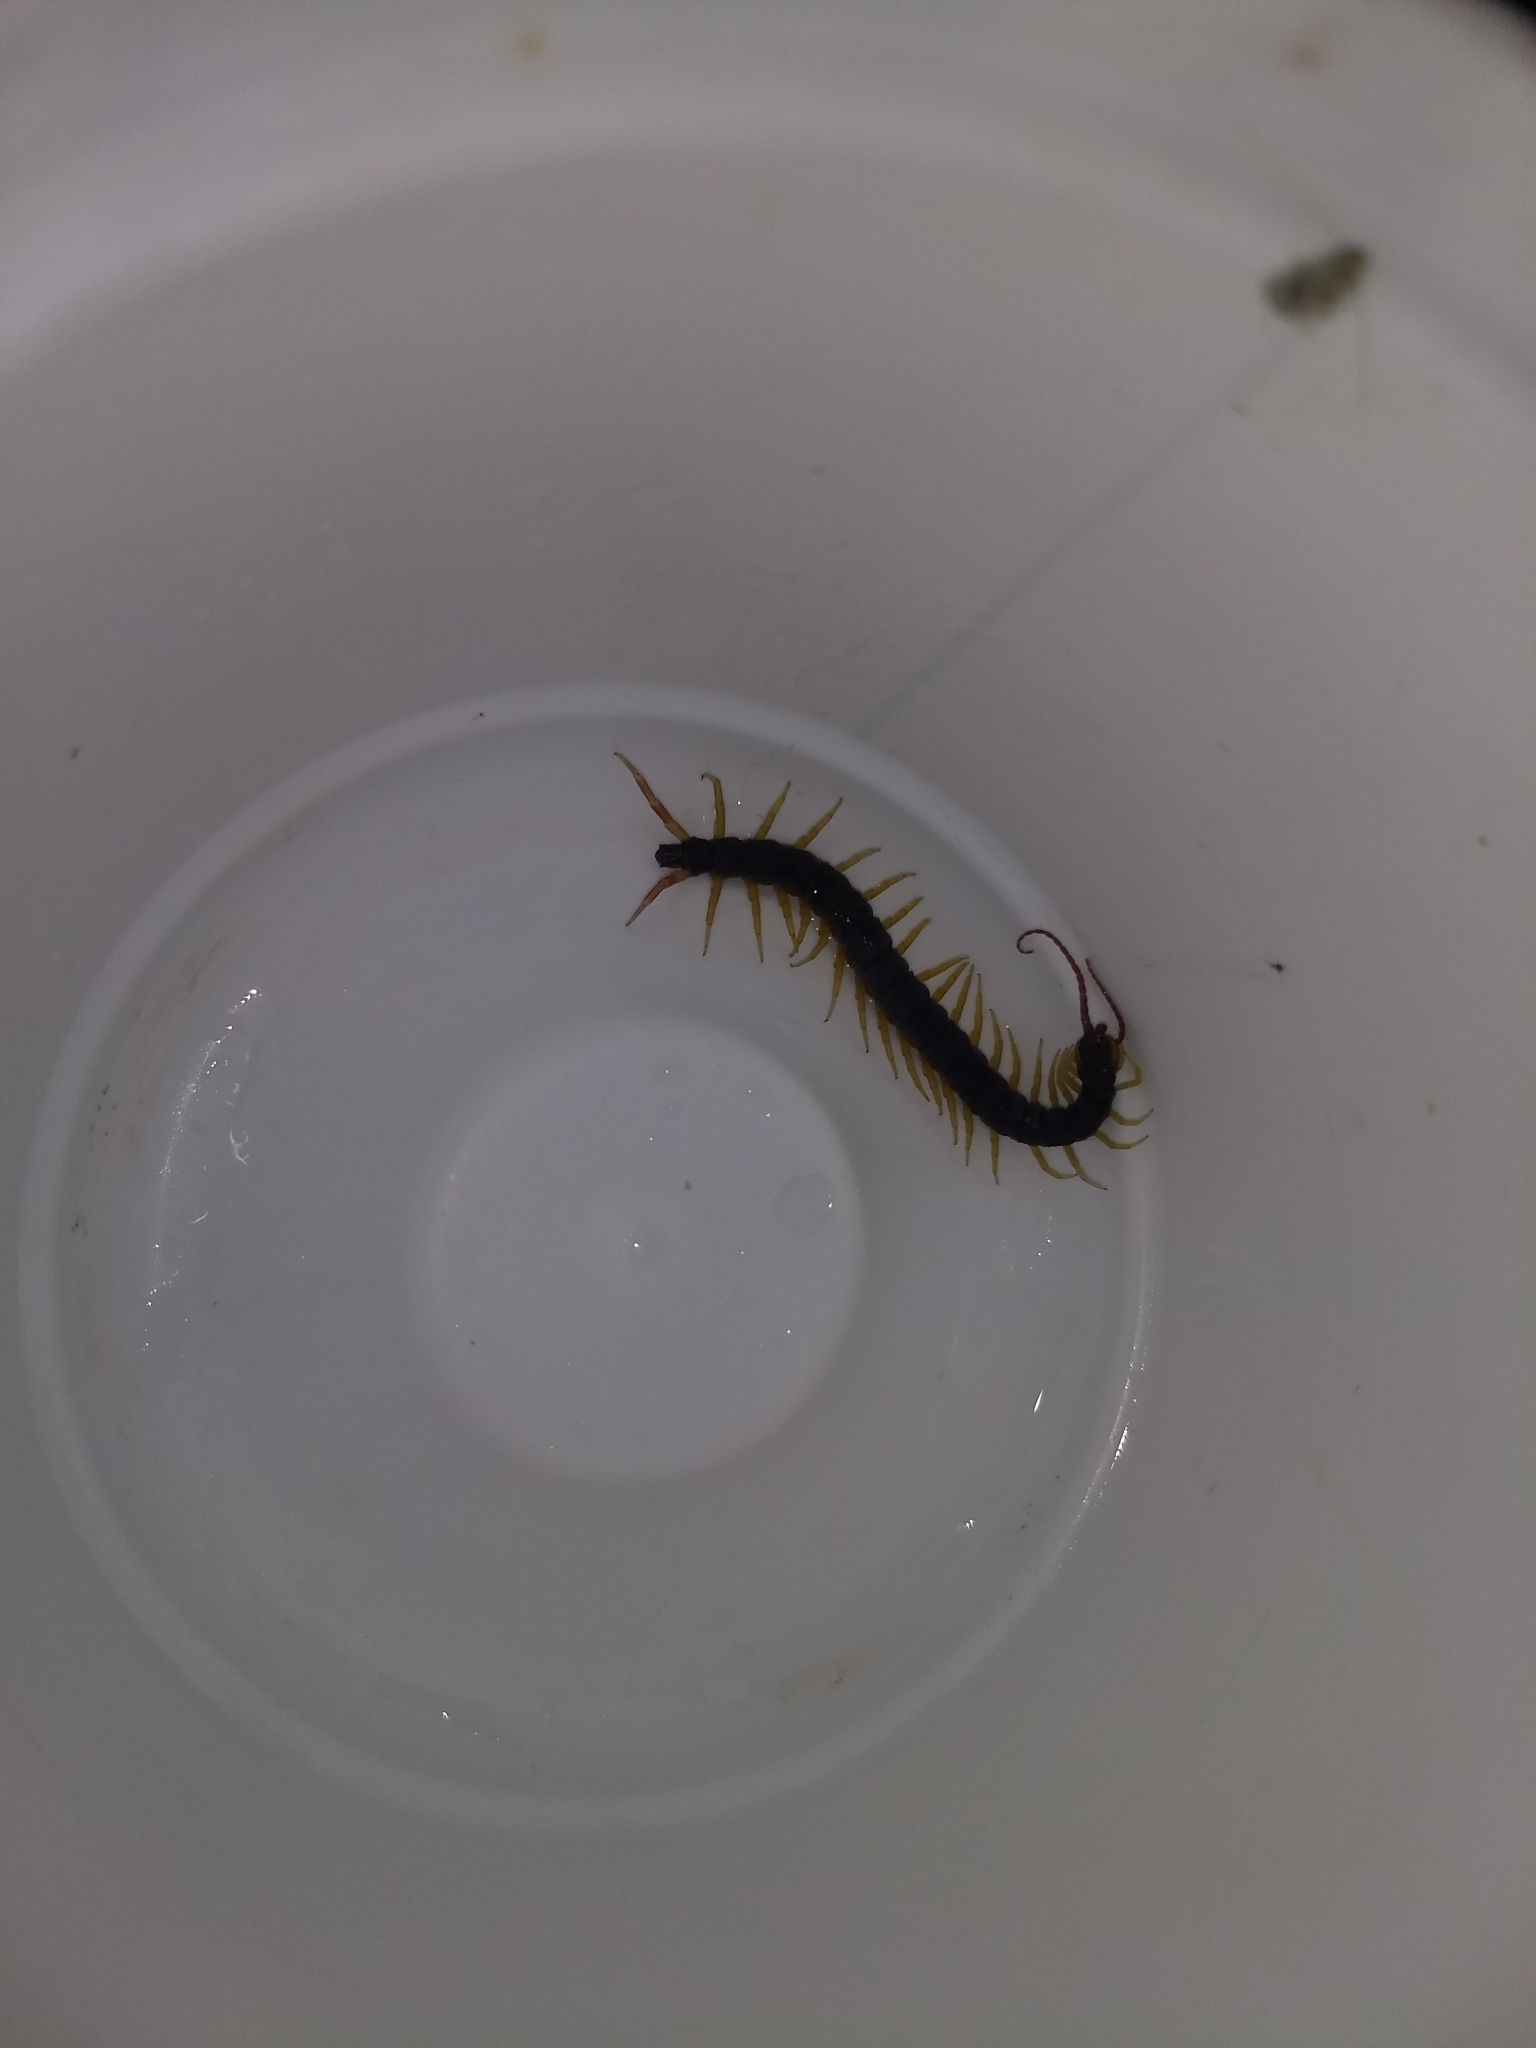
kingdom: Animalia
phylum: Arthropoda
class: Chilopoda
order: Scolopendromorpha
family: Scolopendridae
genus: Otostigmus
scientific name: Otostigmus rex
